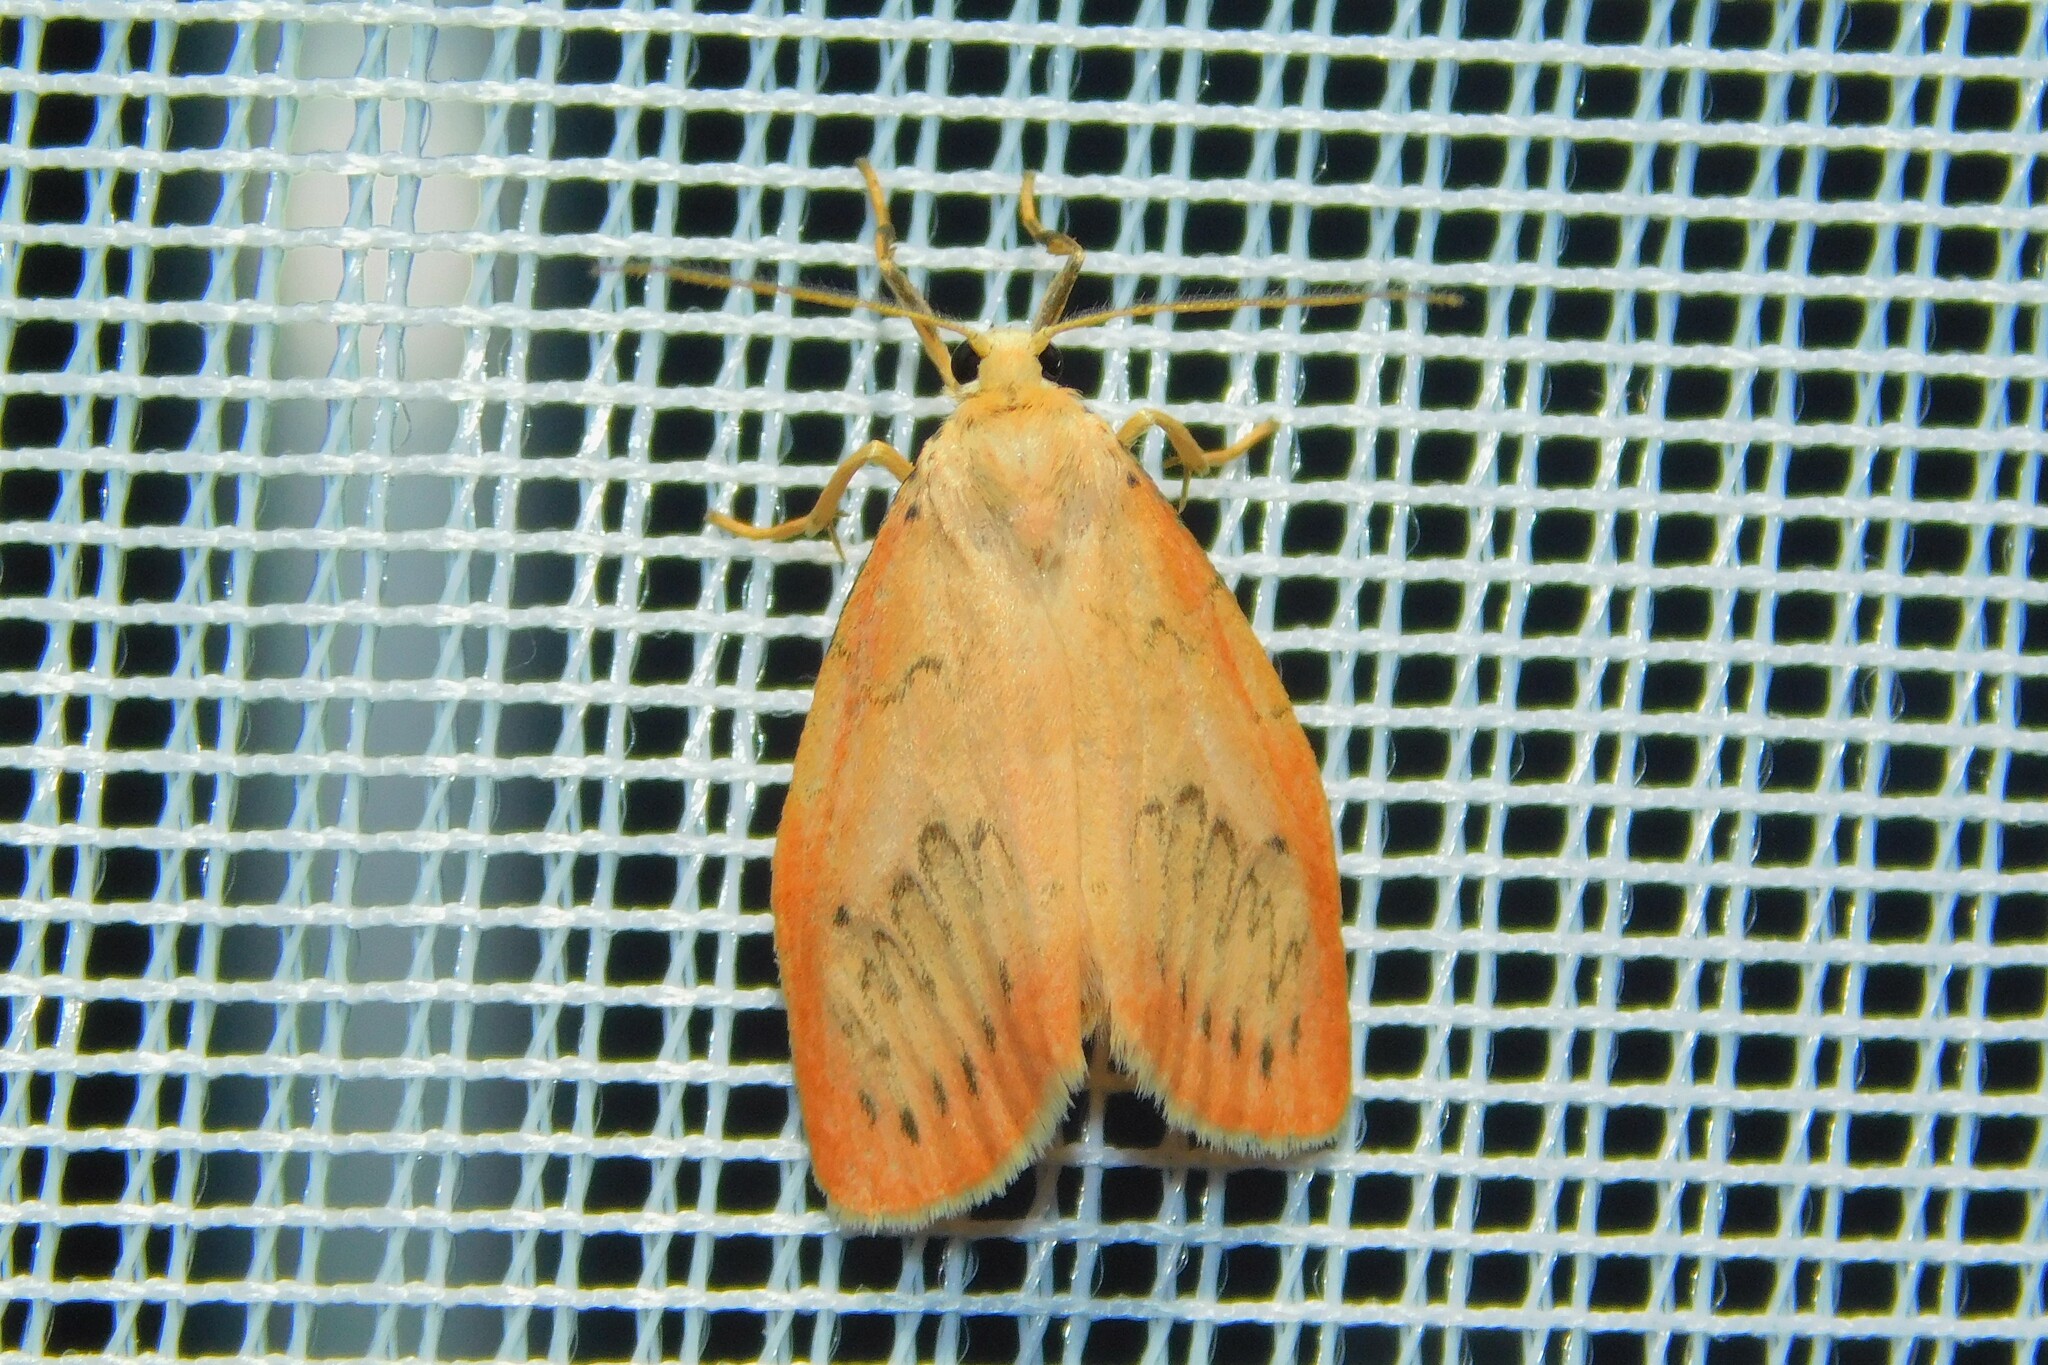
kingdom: Animalia
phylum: Arthropoda
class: Insecta
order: Lepidoptera
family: Erebidae
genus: Miltochrista
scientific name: Miltochrista miniata
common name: Rosy footman
